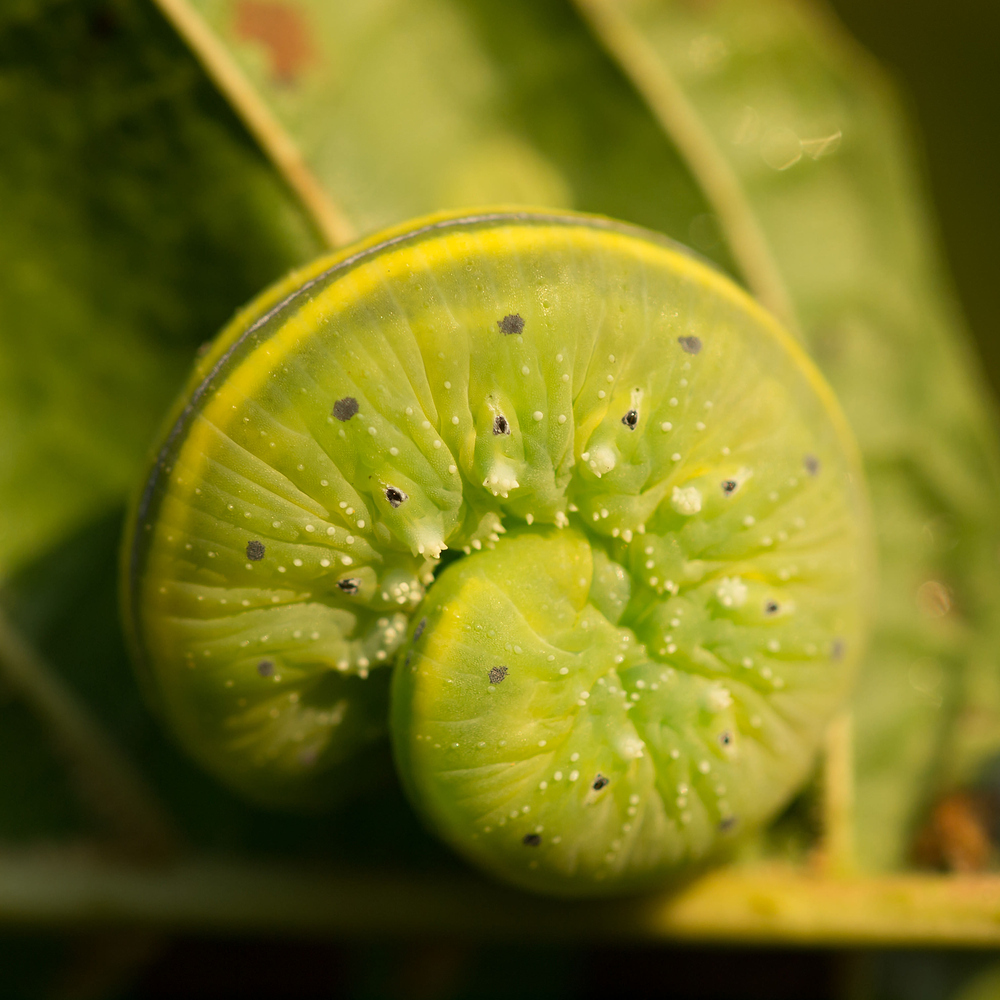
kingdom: Animalia
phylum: Arthropoda
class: Insecta
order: Hymenoptera
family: Cimbicidae
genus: Cimbex
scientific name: Cimbex connatus
